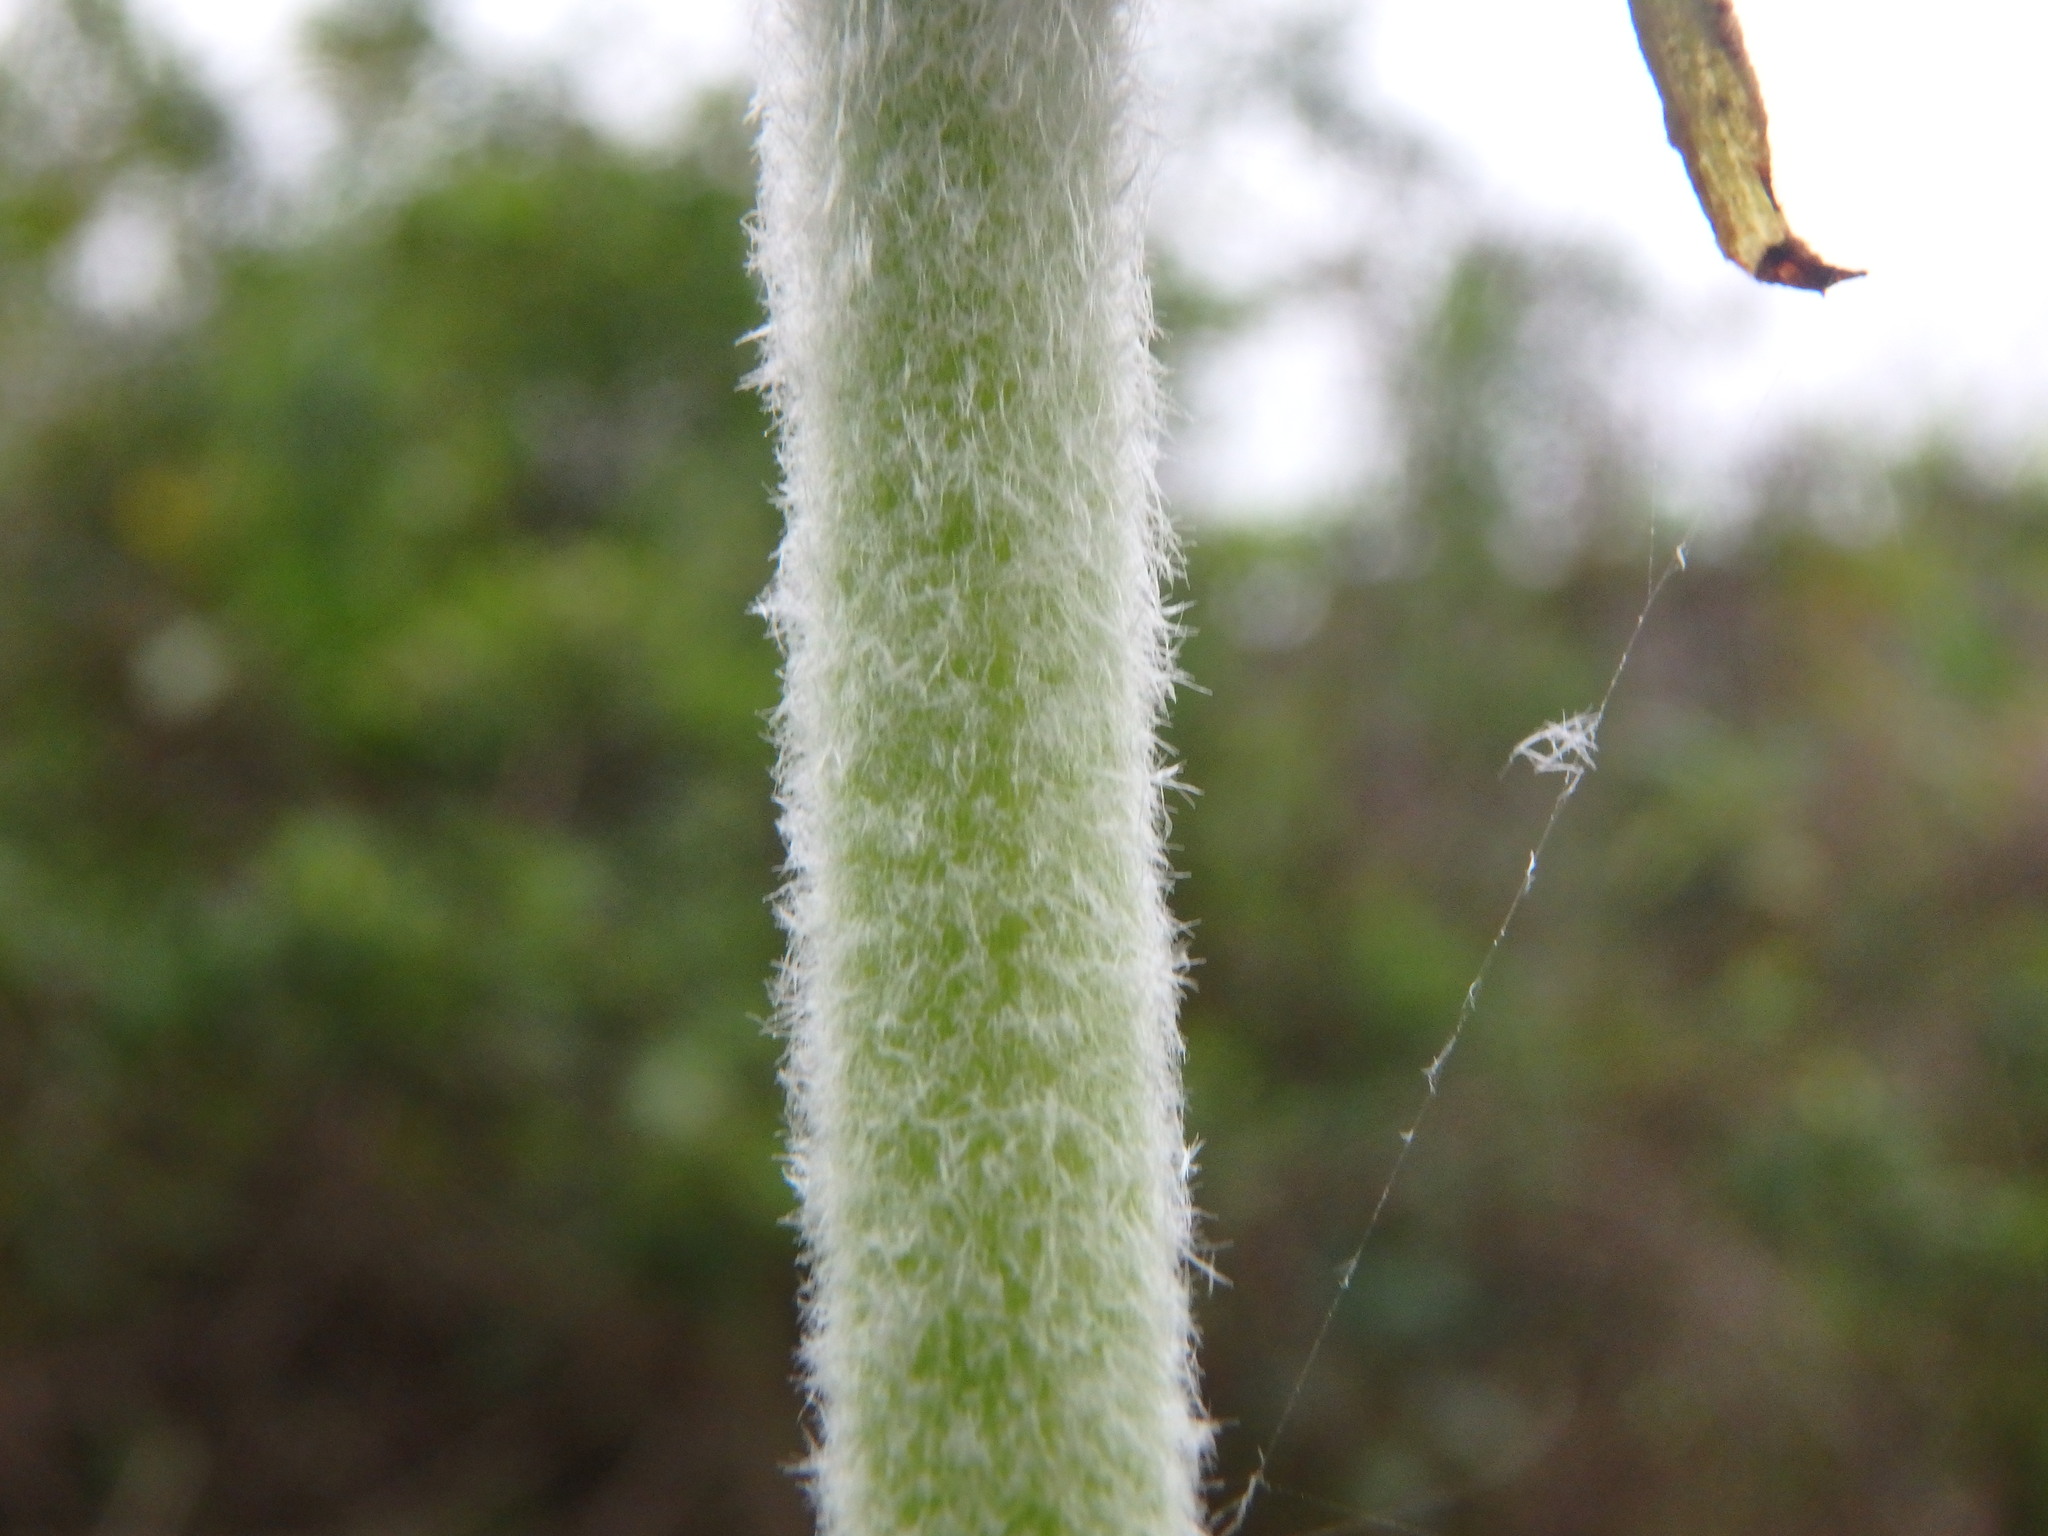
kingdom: Plantae
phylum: Tracheophyta
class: Magnoliopsida
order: Asterales
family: Asteraceae
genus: Sonchus
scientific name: Sonchus acaulis
